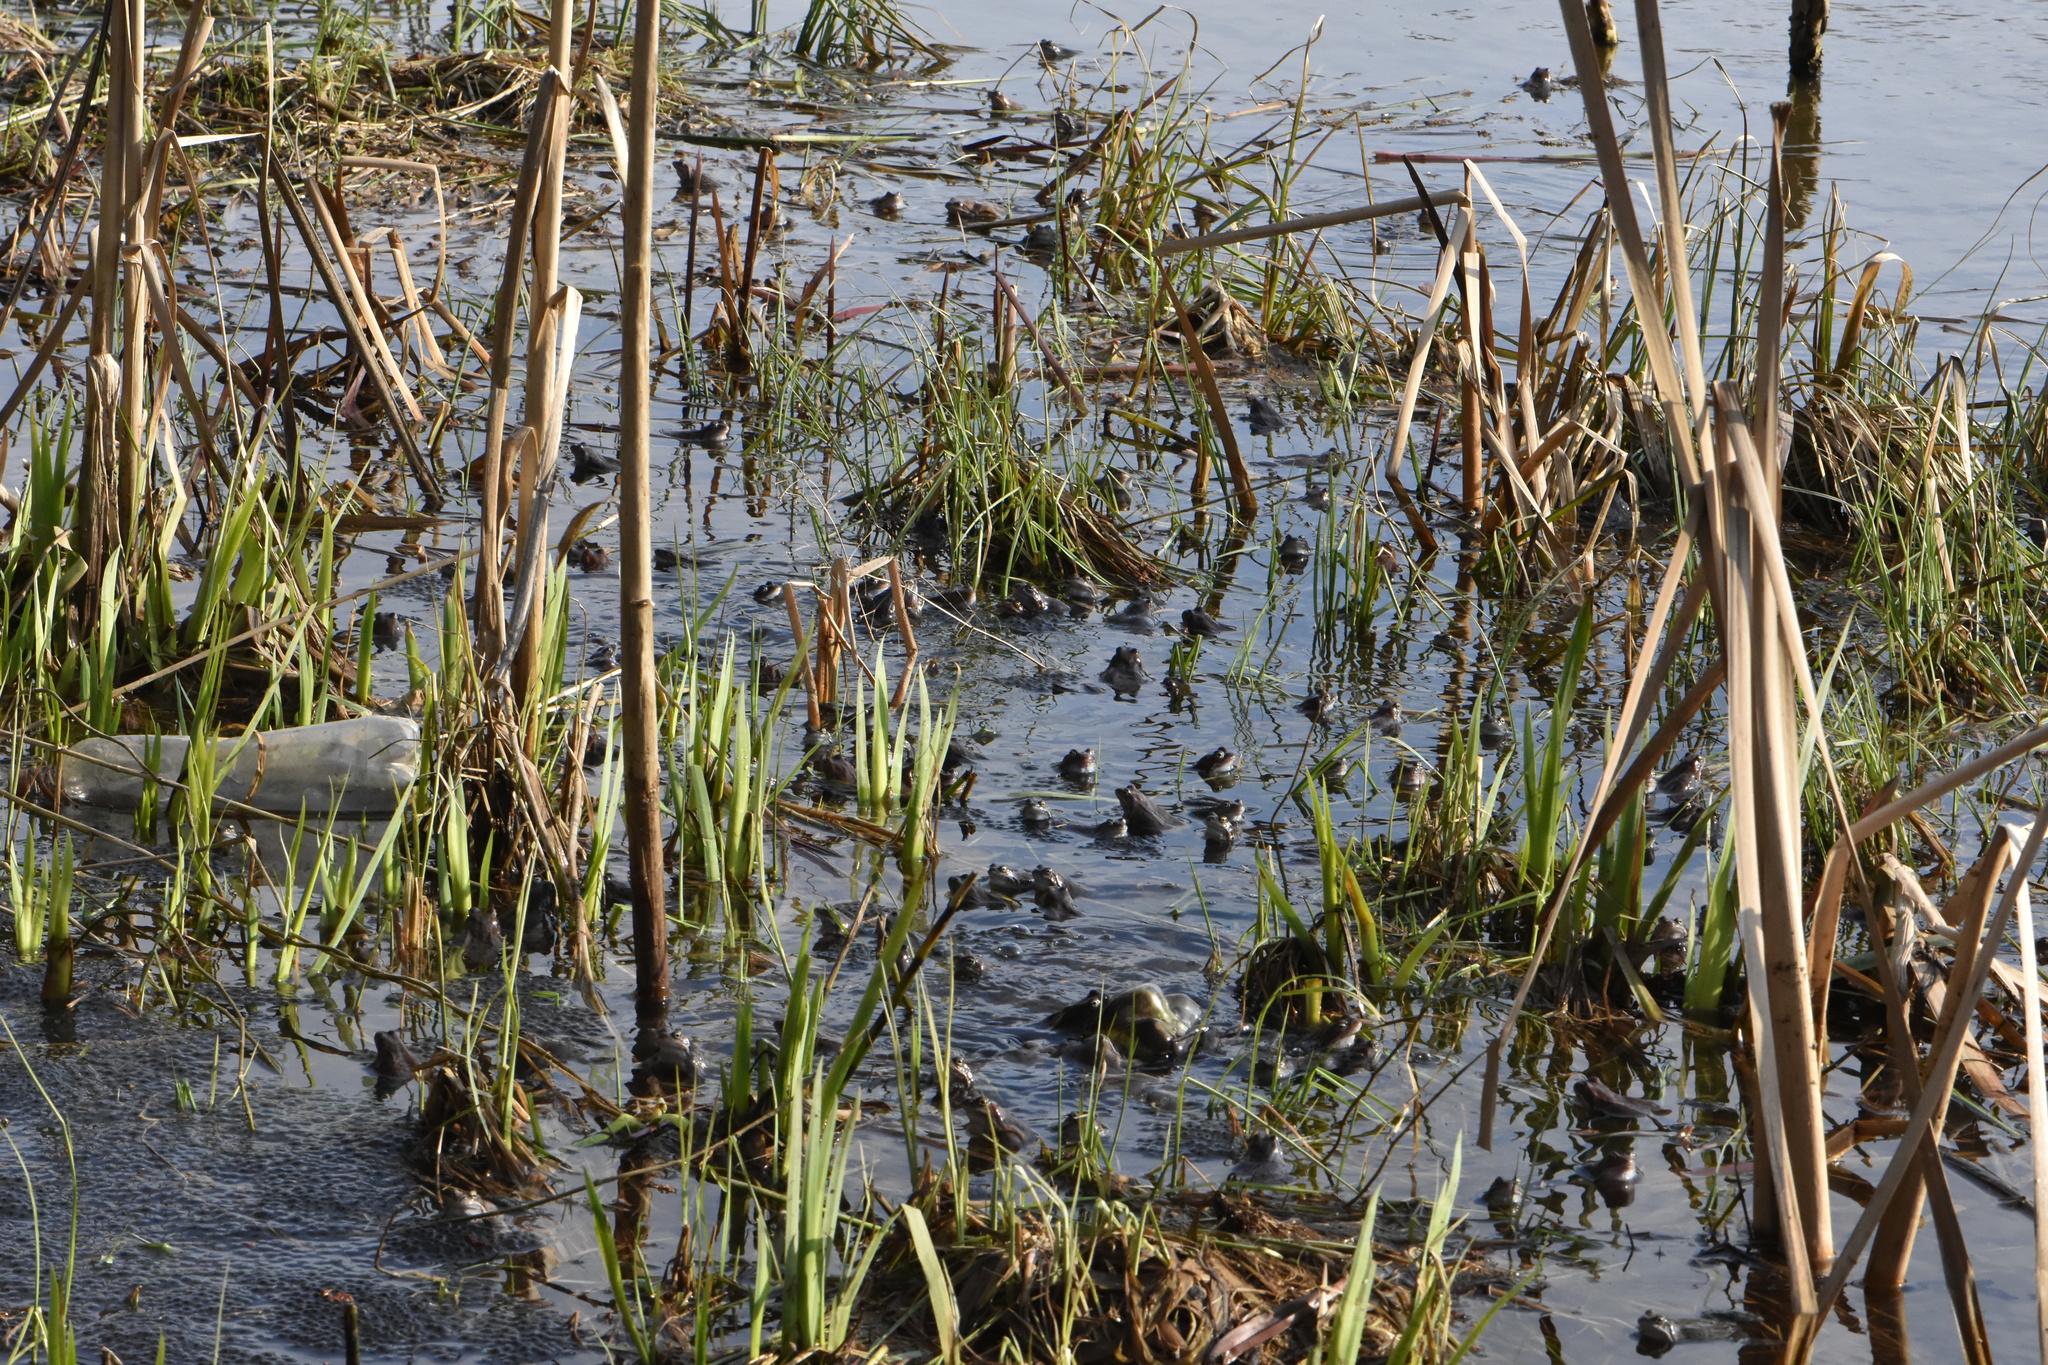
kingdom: Animalia
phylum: Chordata
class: Amphibia
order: Anura
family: Ranidae
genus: Rana
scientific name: Rana temporaria
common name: Common frog
